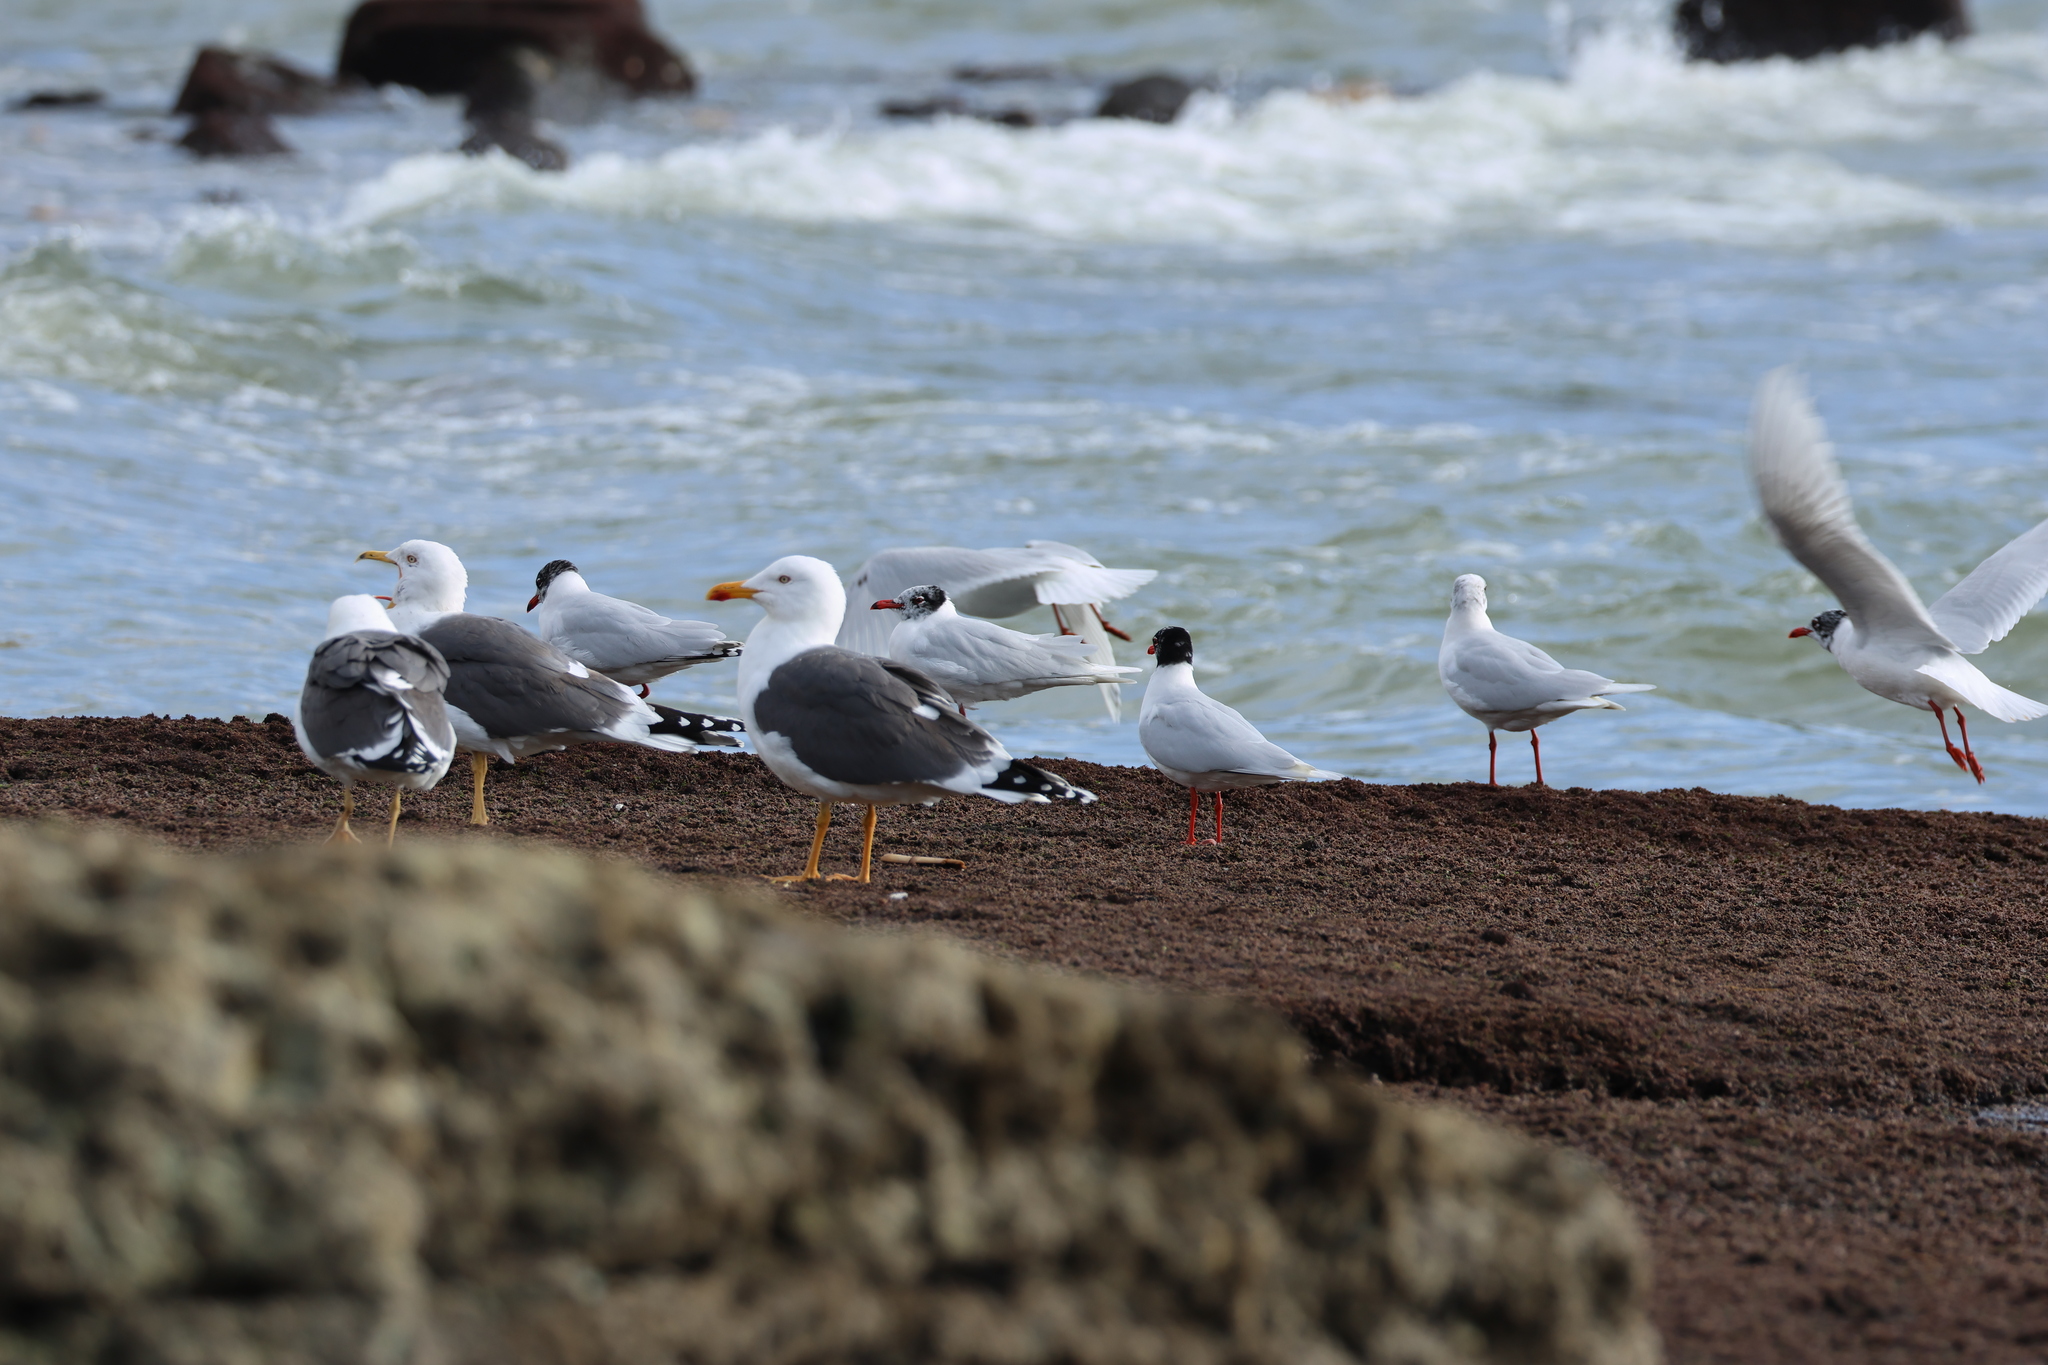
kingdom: Animalia
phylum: Chordata
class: Aves
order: Charadriiformes
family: Laridae
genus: Larus
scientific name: Larus fuscus
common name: Lesser black-backed gull
